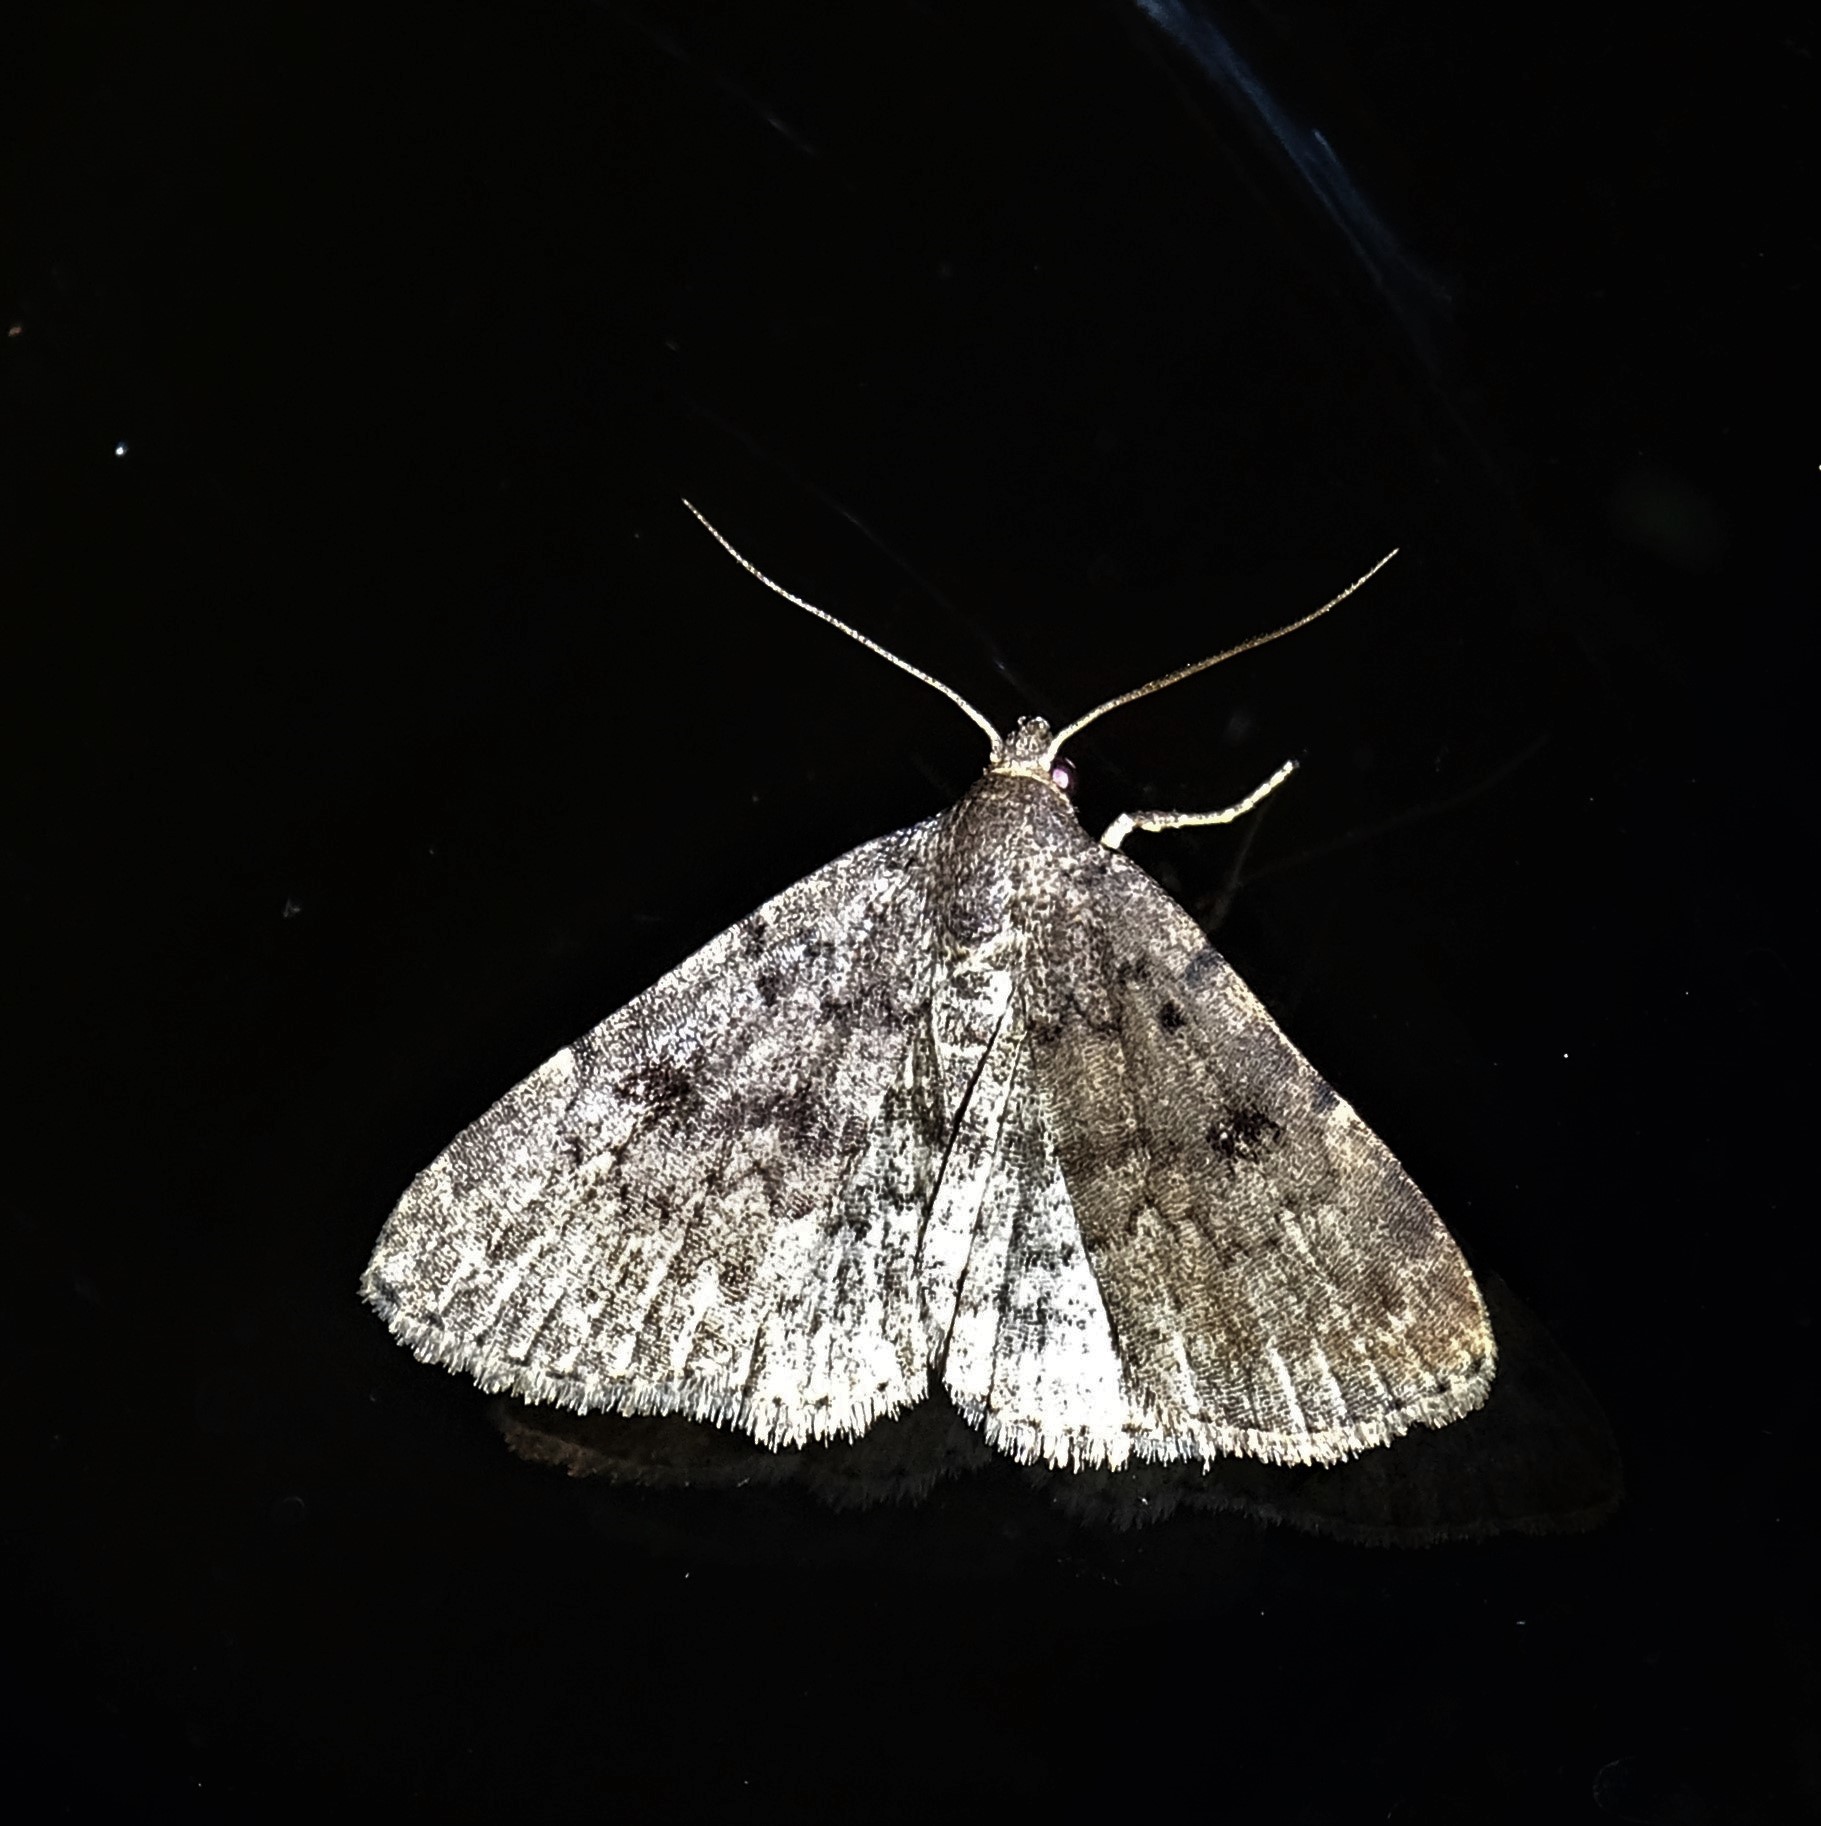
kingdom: Animalia
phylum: Arthropoda
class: Insecta
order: Lepidoptera
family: Erebidae
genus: Idia
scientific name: Idia aemula
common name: Common idia moth
